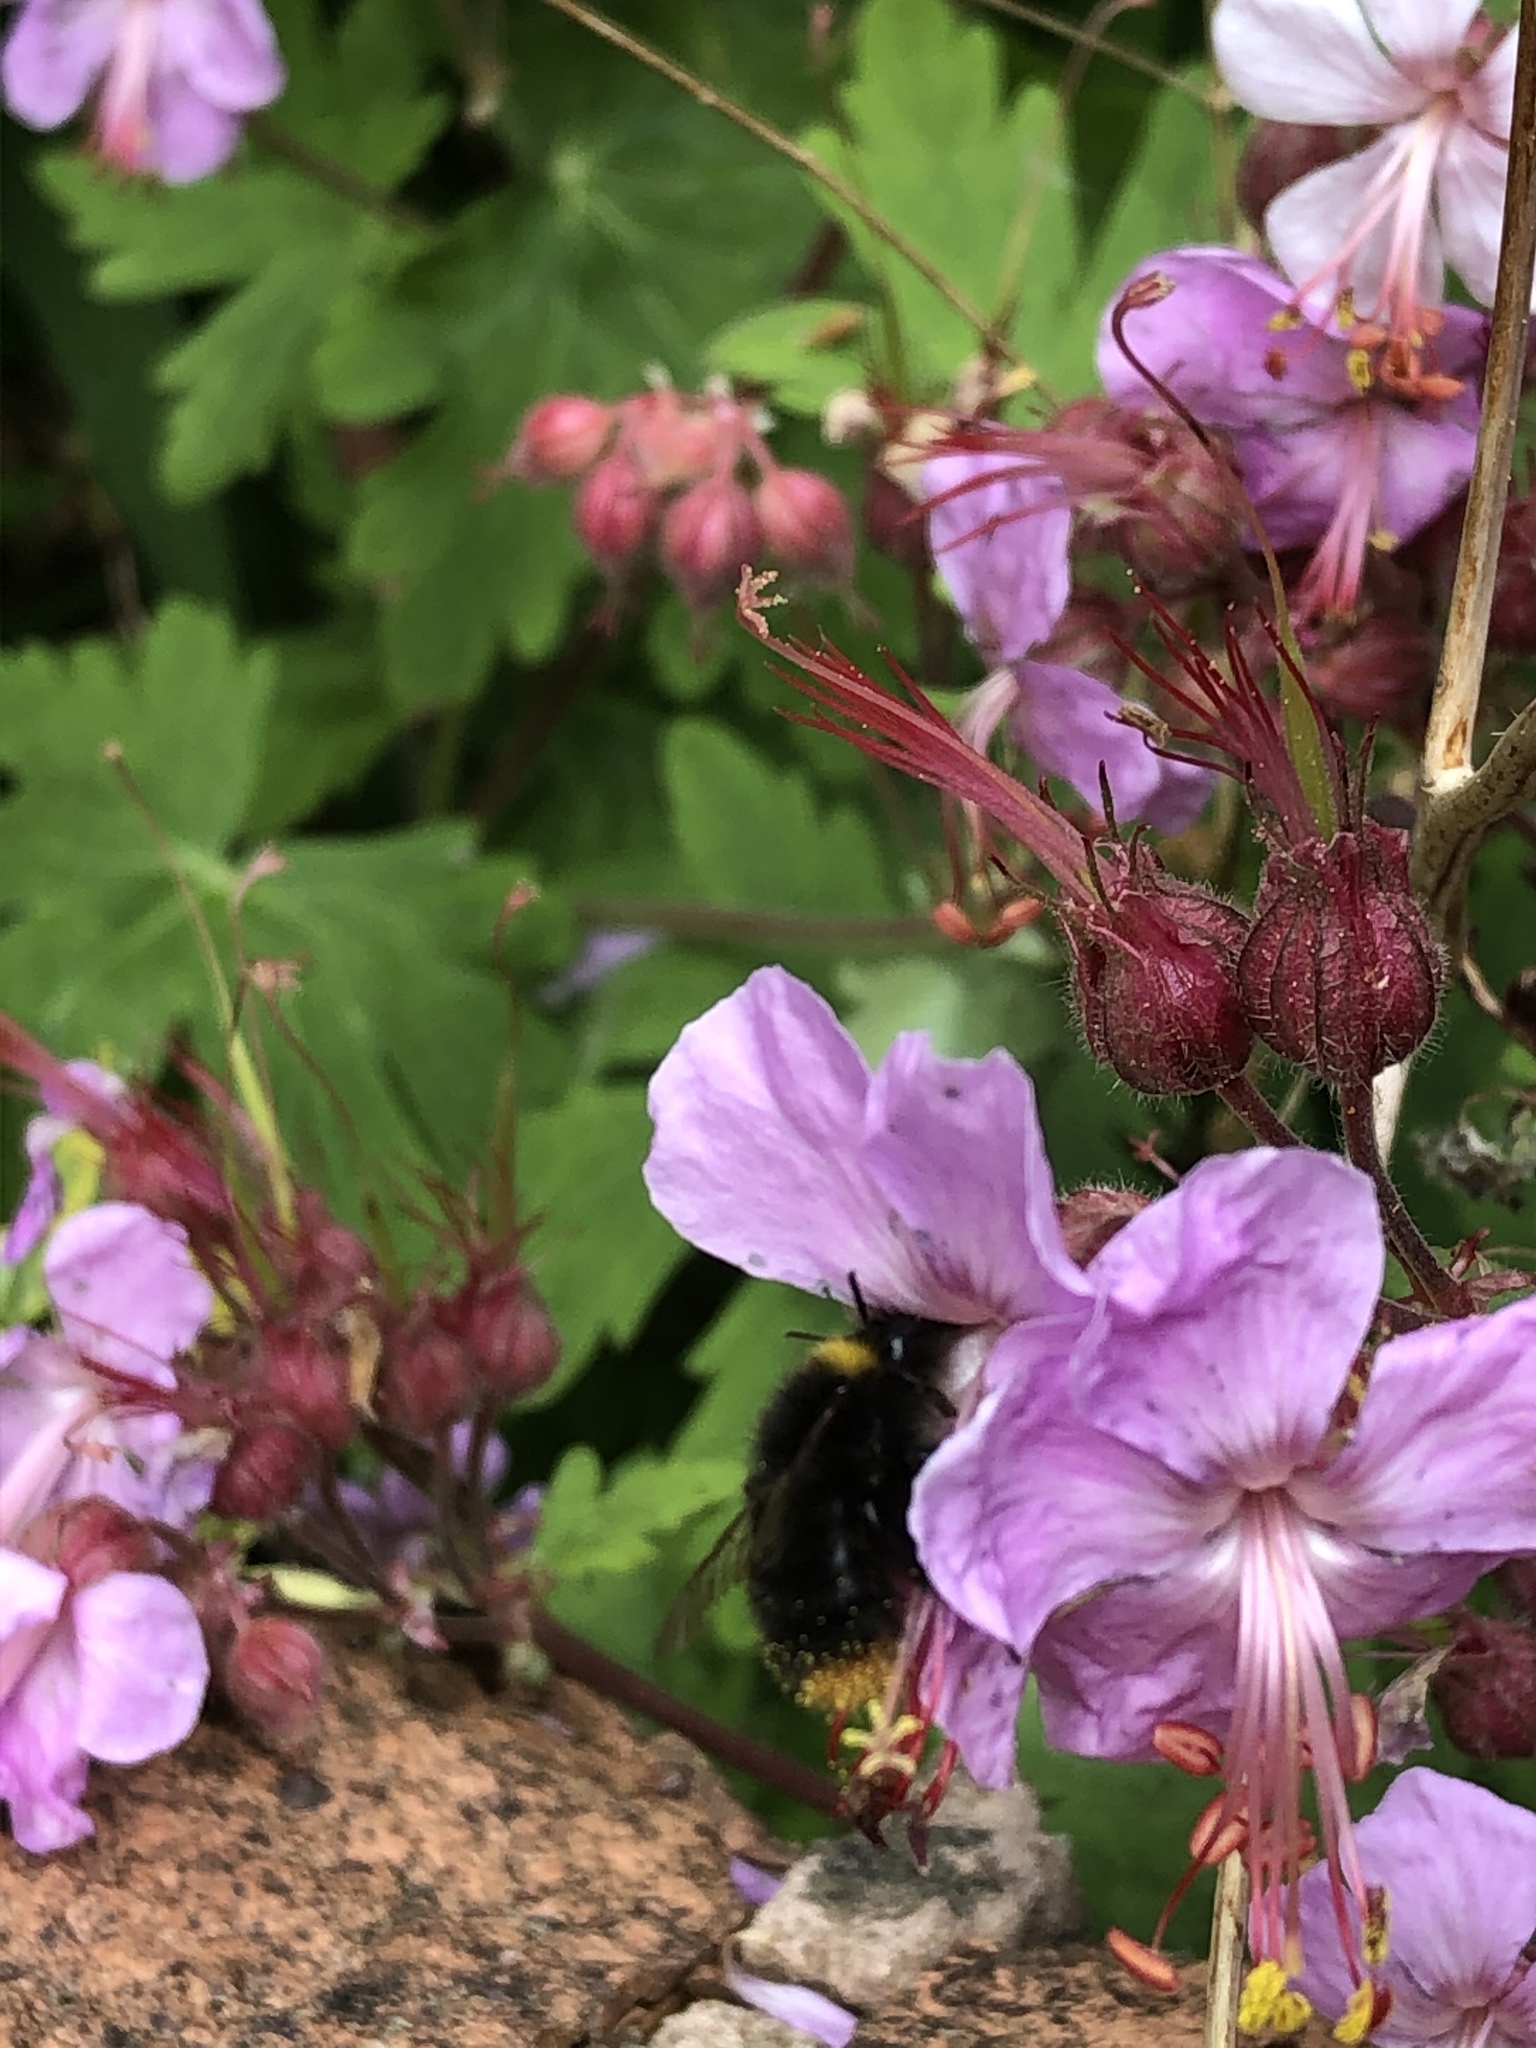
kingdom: Animalia
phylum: Arthropoda
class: Insecta
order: Hymenoptera
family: Apidae
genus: Bombus
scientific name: Bombus pratorum
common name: Early humble-bee
